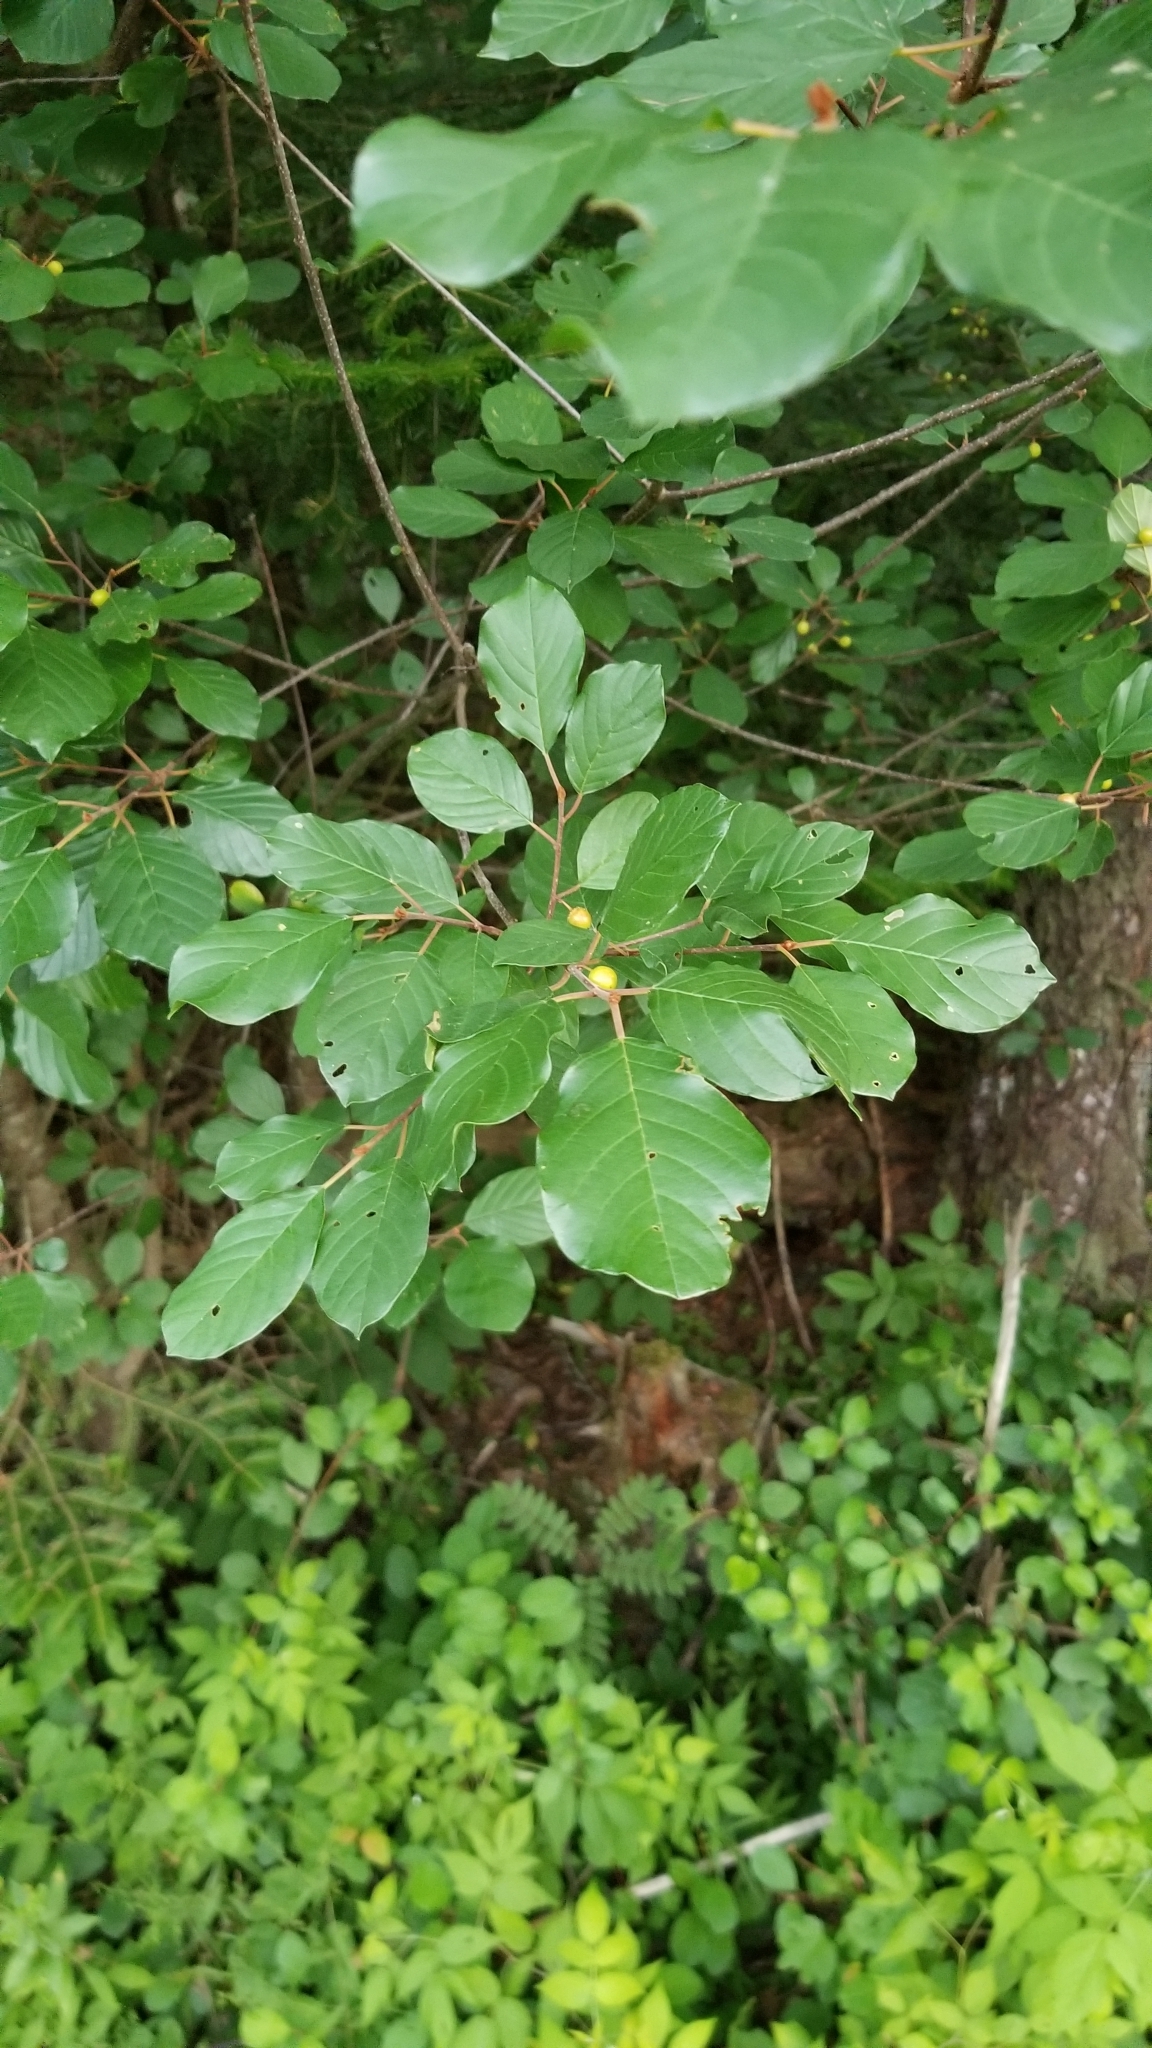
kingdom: Plantae
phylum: Tracheophyta
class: Magnoliopsida
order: Rosales
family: Rhamnaceae
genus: Frangula
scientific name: Frangula alnus
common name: Alder buckthorn
